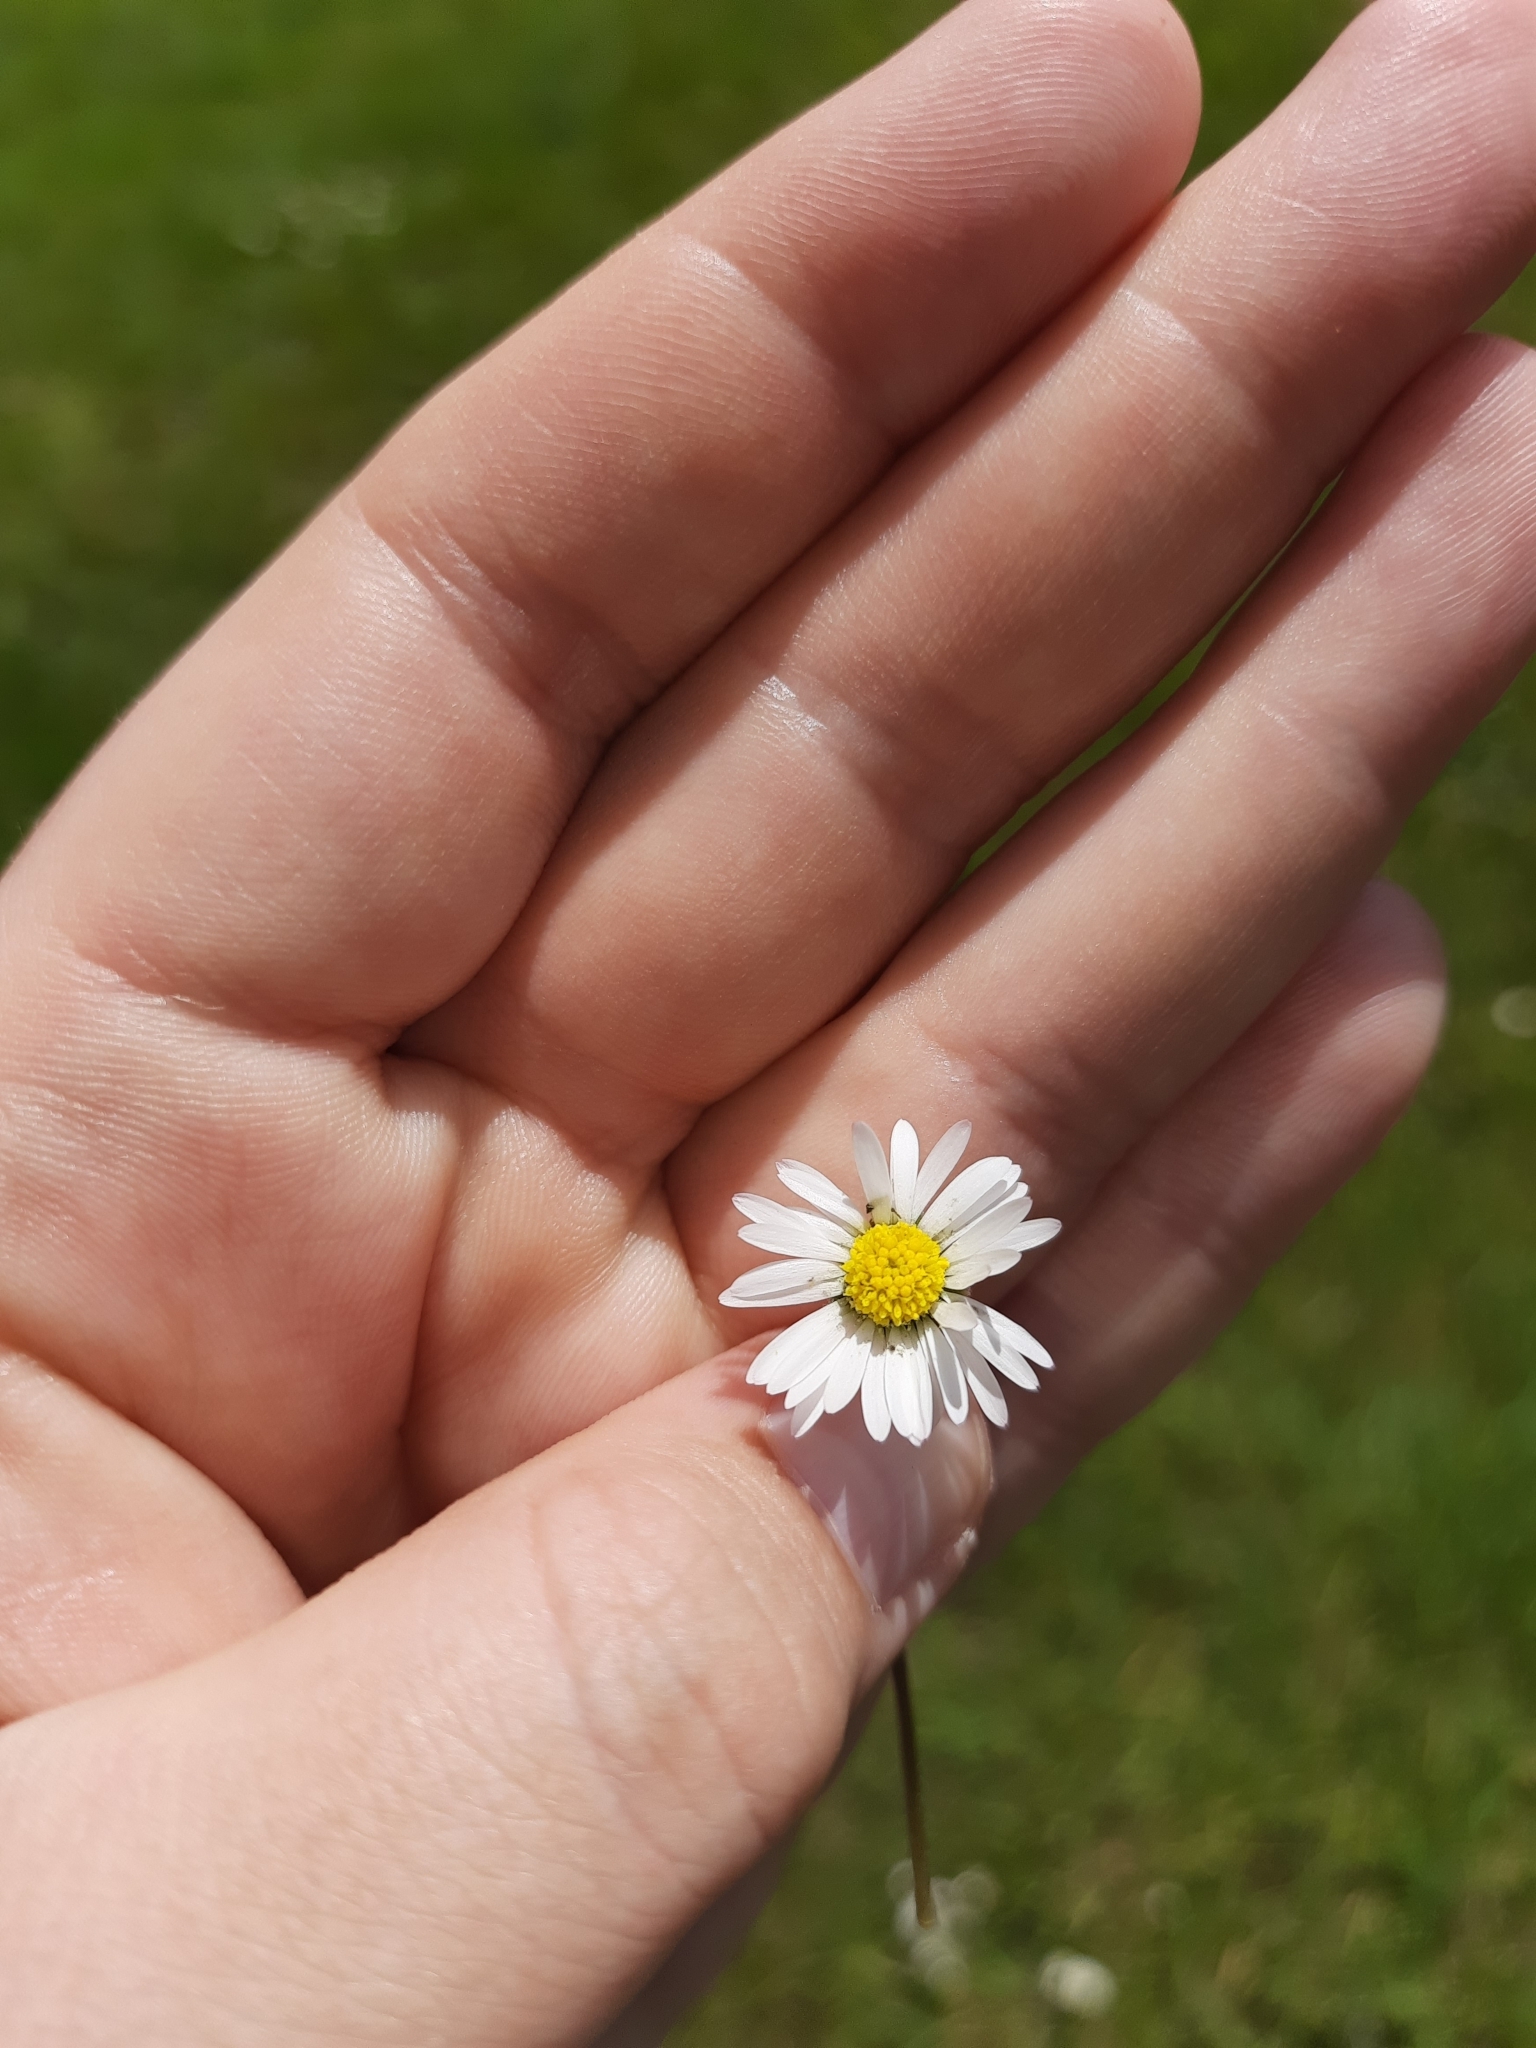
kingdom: Plantae
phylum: Tracheophyta
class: Magnoliopsida
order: Asterales
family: Asteraceae
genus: Bellis
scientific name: Bellis perennis
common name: Lawndaisy
